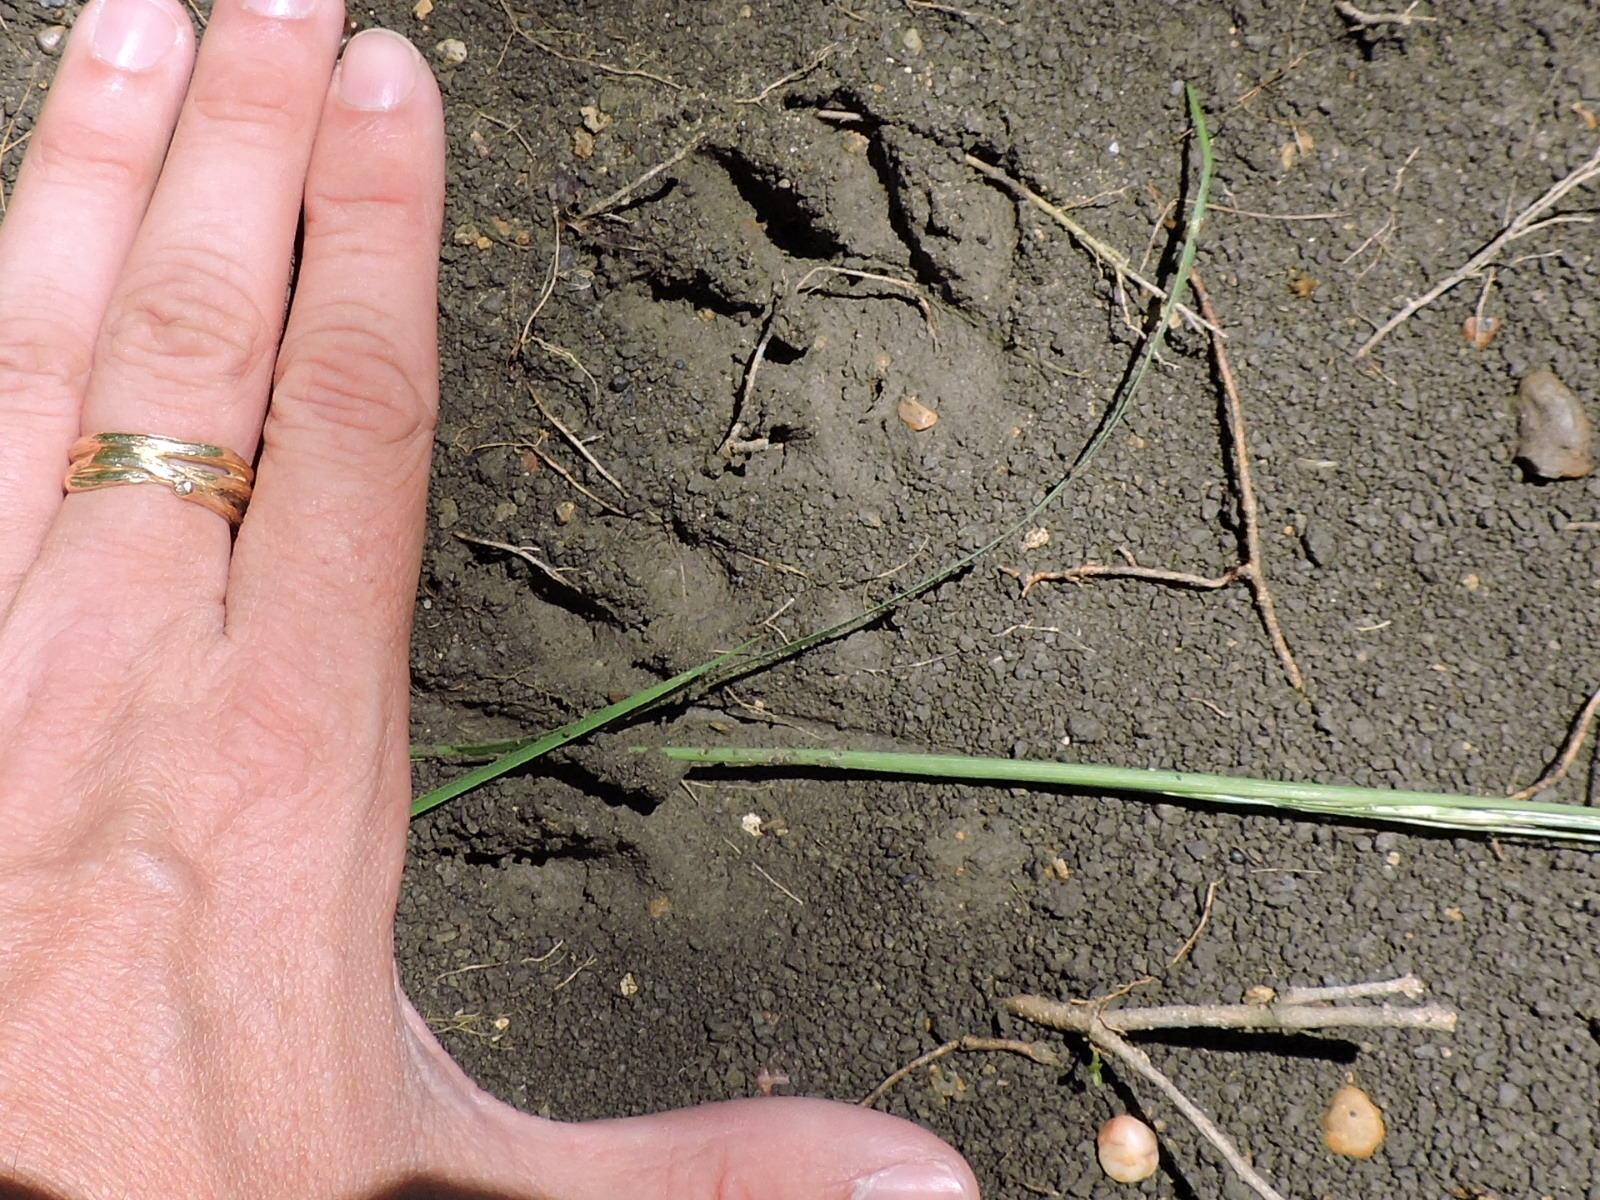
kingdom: Animalia
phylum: Chordata
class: Mammalia
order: Carnivora
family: Procyonidae
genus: Procyon
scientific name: Procyon lotor
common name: Raccoon
